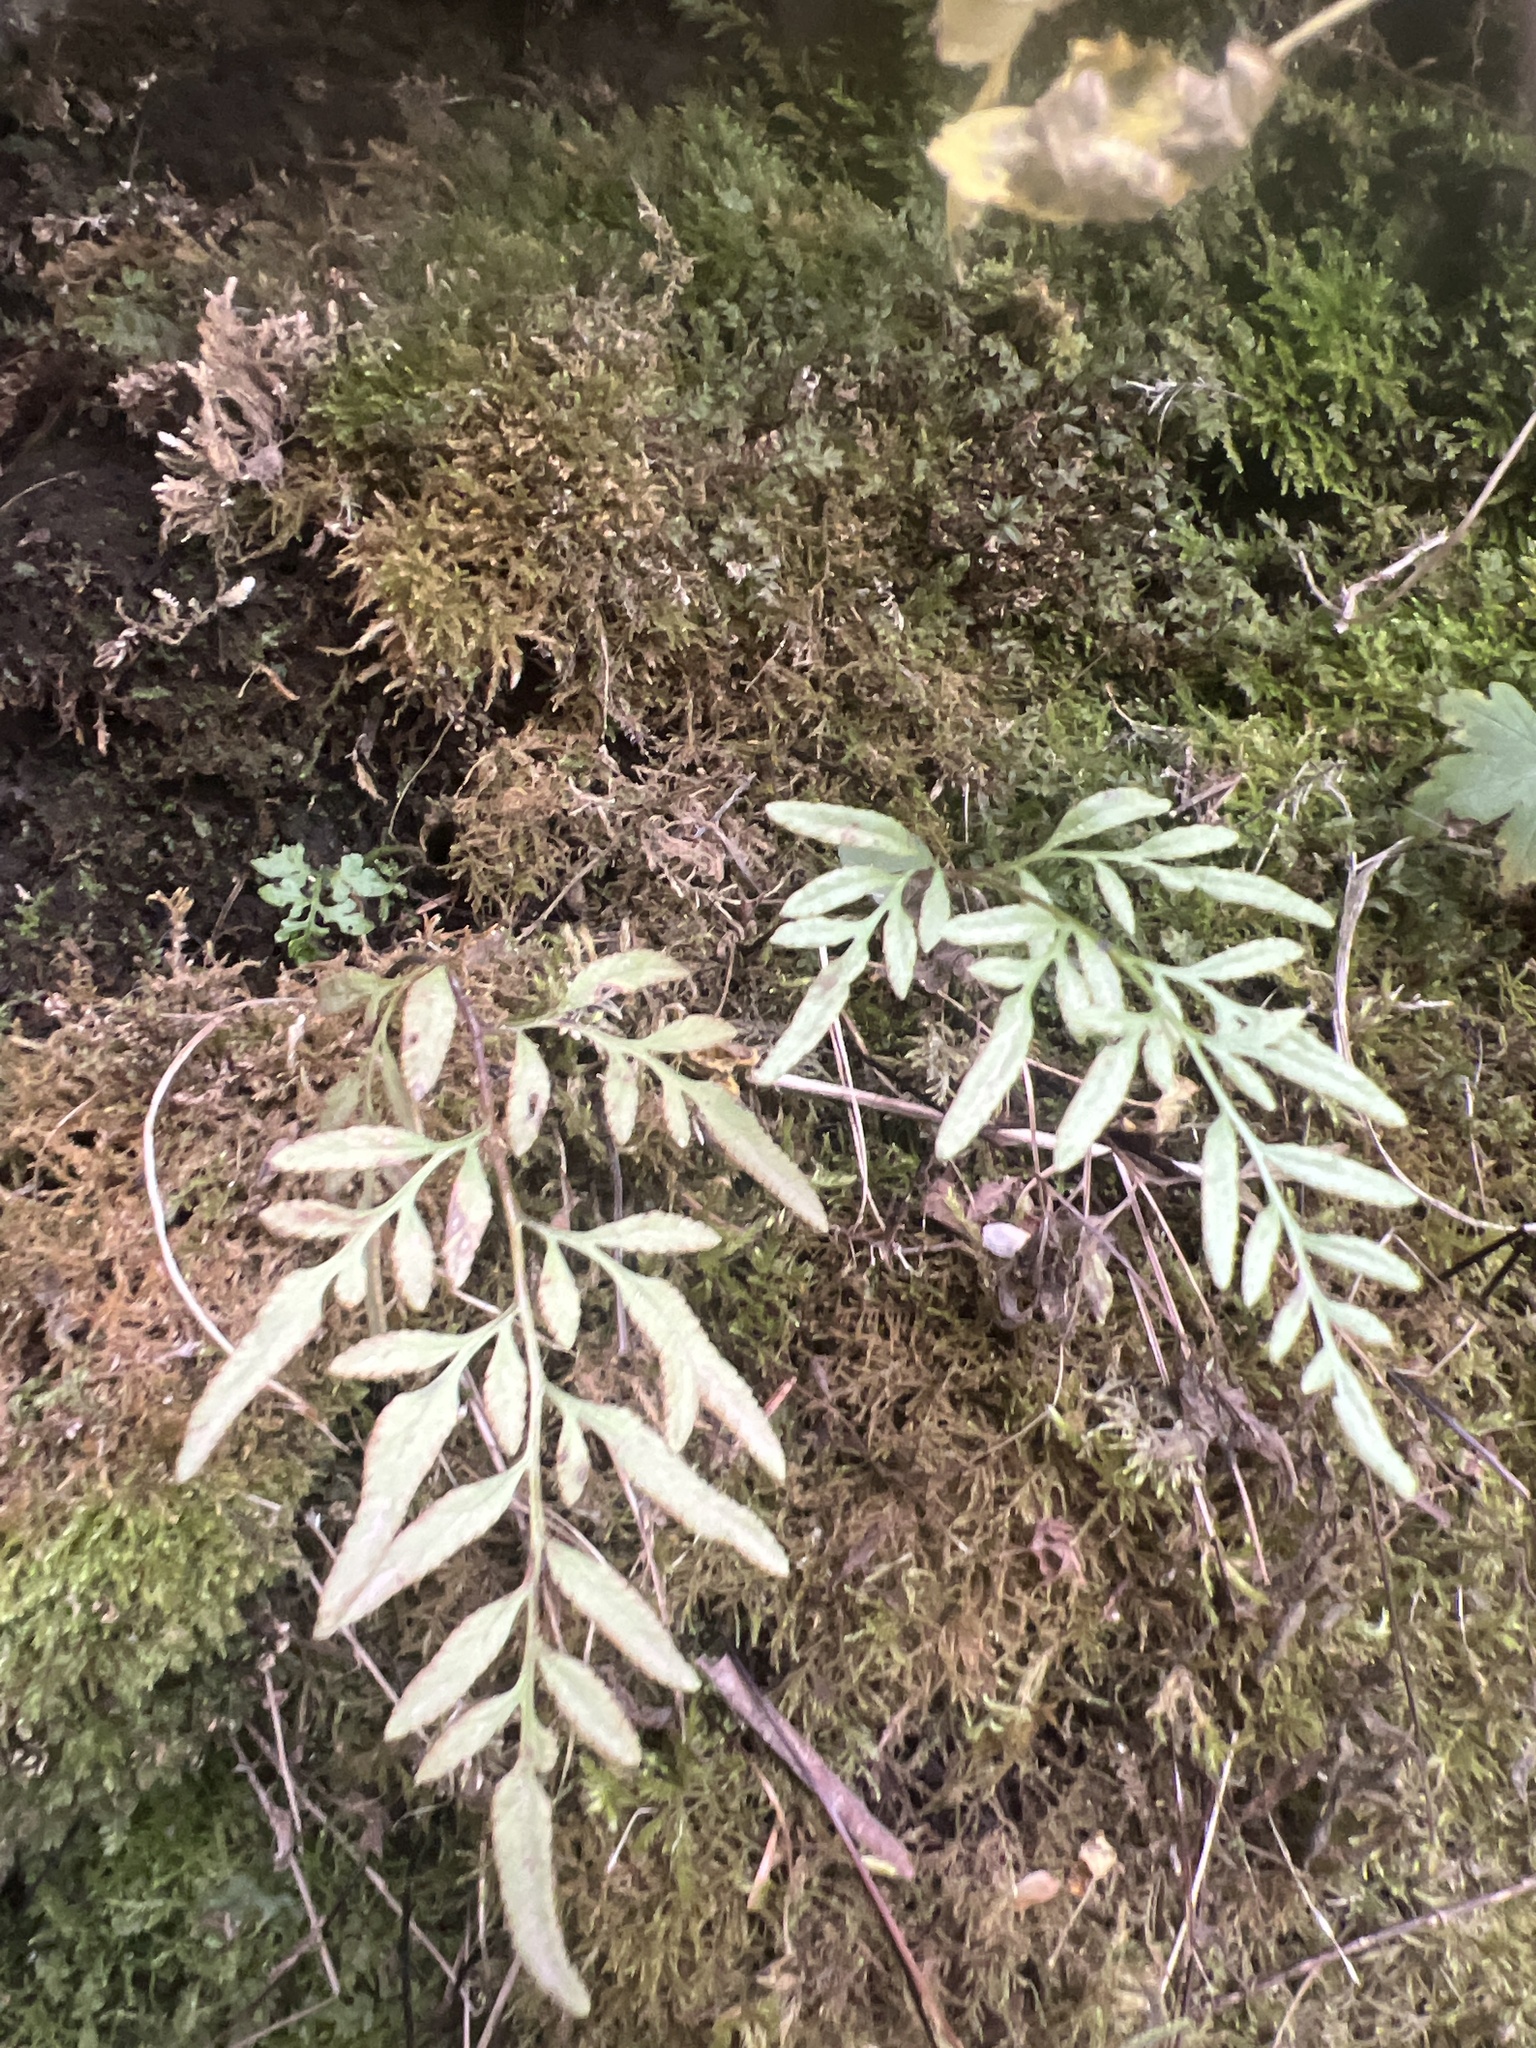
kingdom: Plantae
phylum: Tracheophyta
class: Polypodiopsida
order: Polypodiales
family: Pteridaceae
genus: Cryptogramma
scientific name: Cryptogramma stelleri
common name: Cliff-brake
